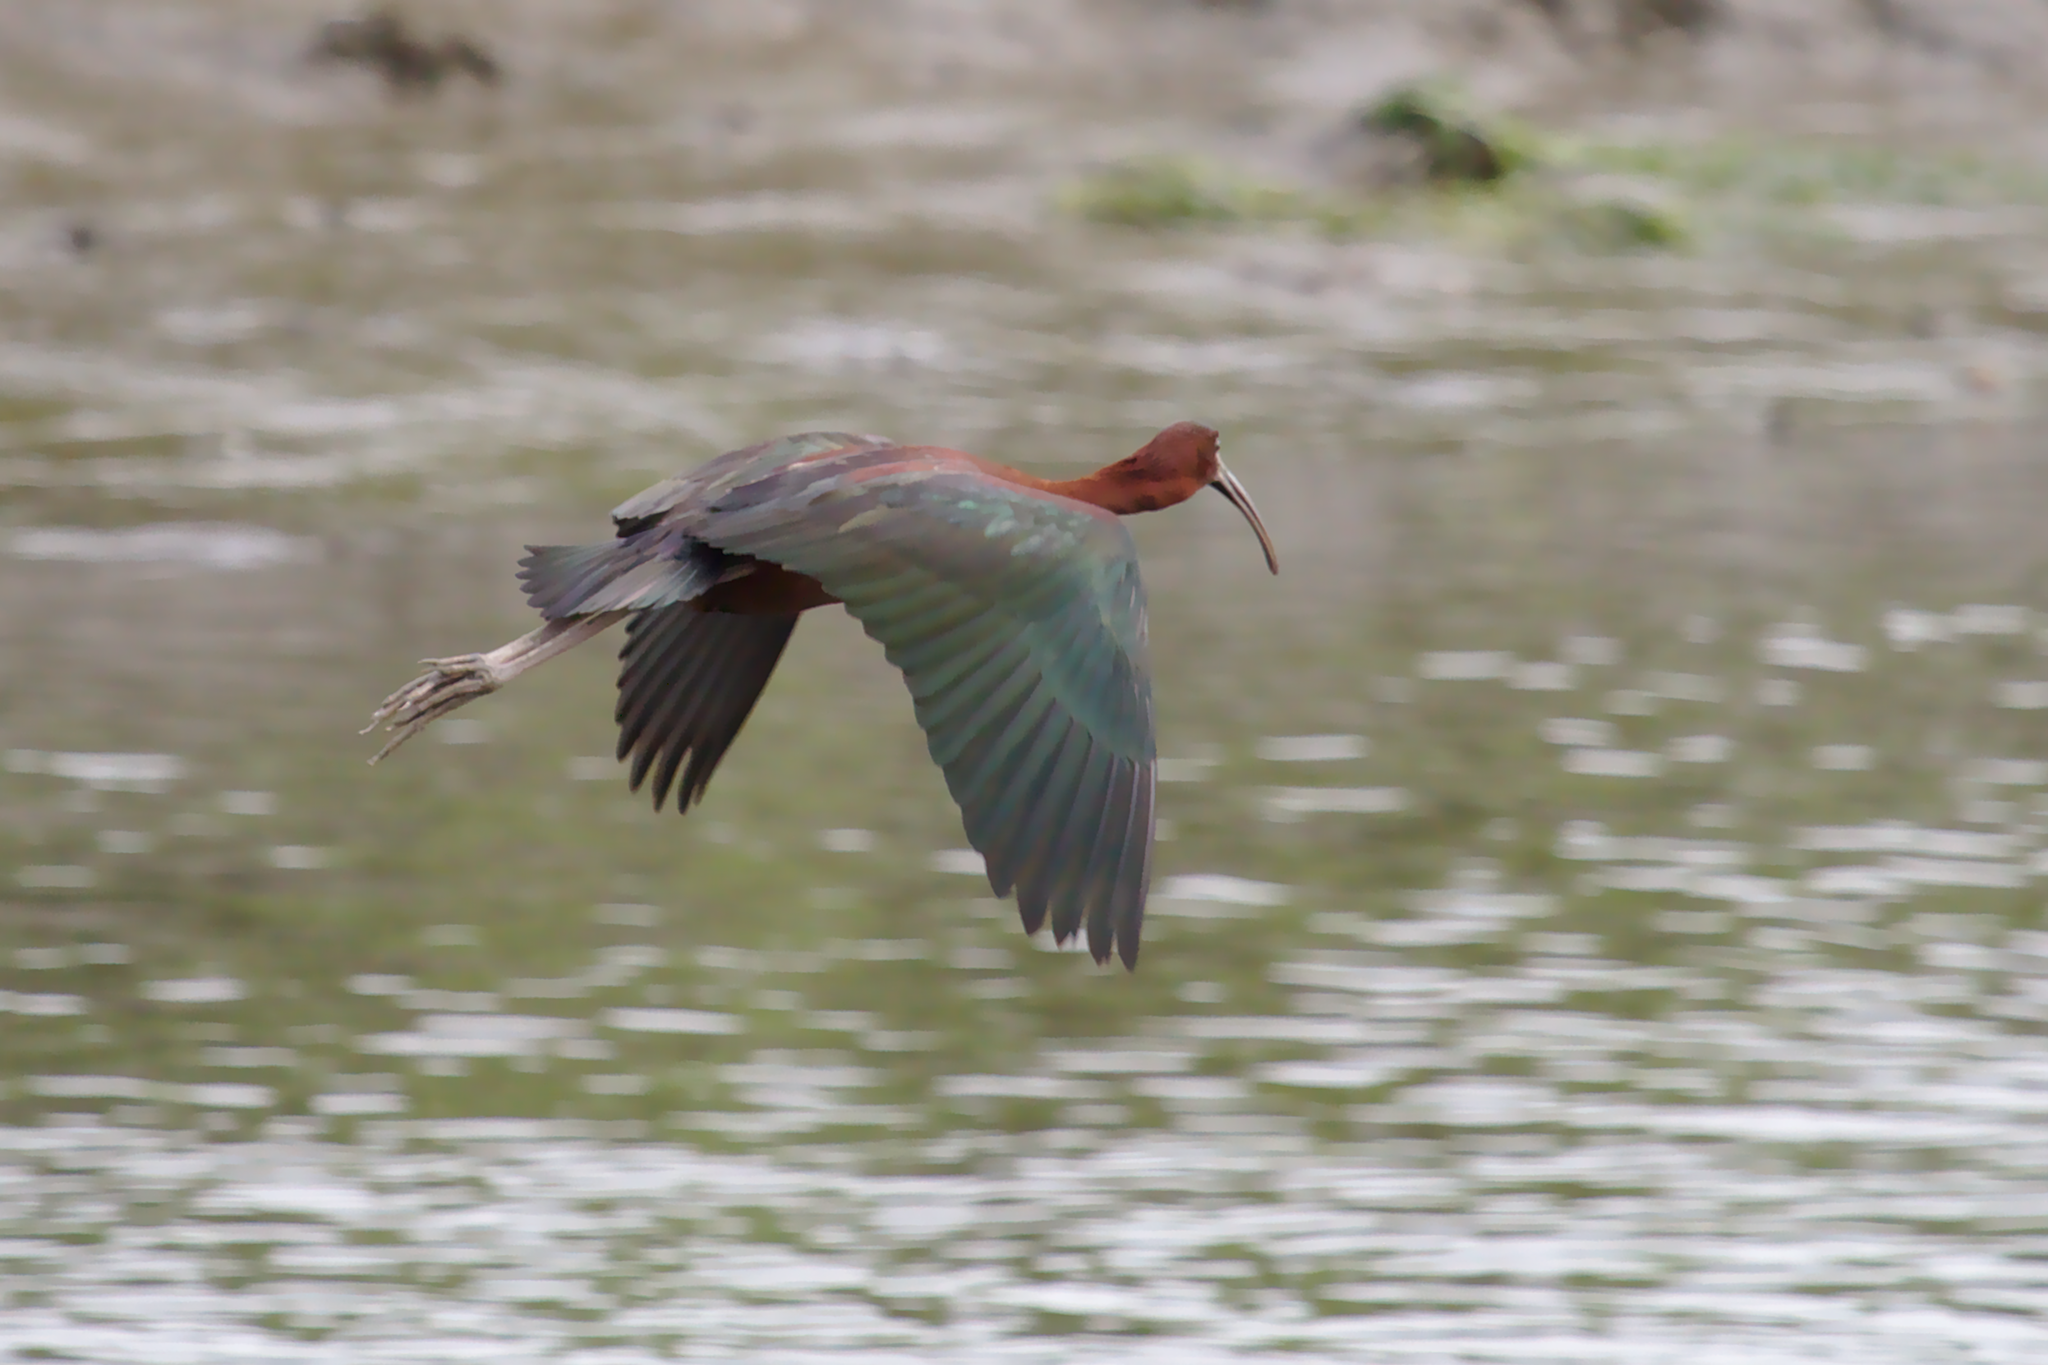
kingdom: Animalia
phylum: Chordata
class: Aves
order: Pelecaniformes
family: Threskiornithidae
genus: Plegadis
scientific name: Plegadis falcinellus
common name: Glossy ibis
